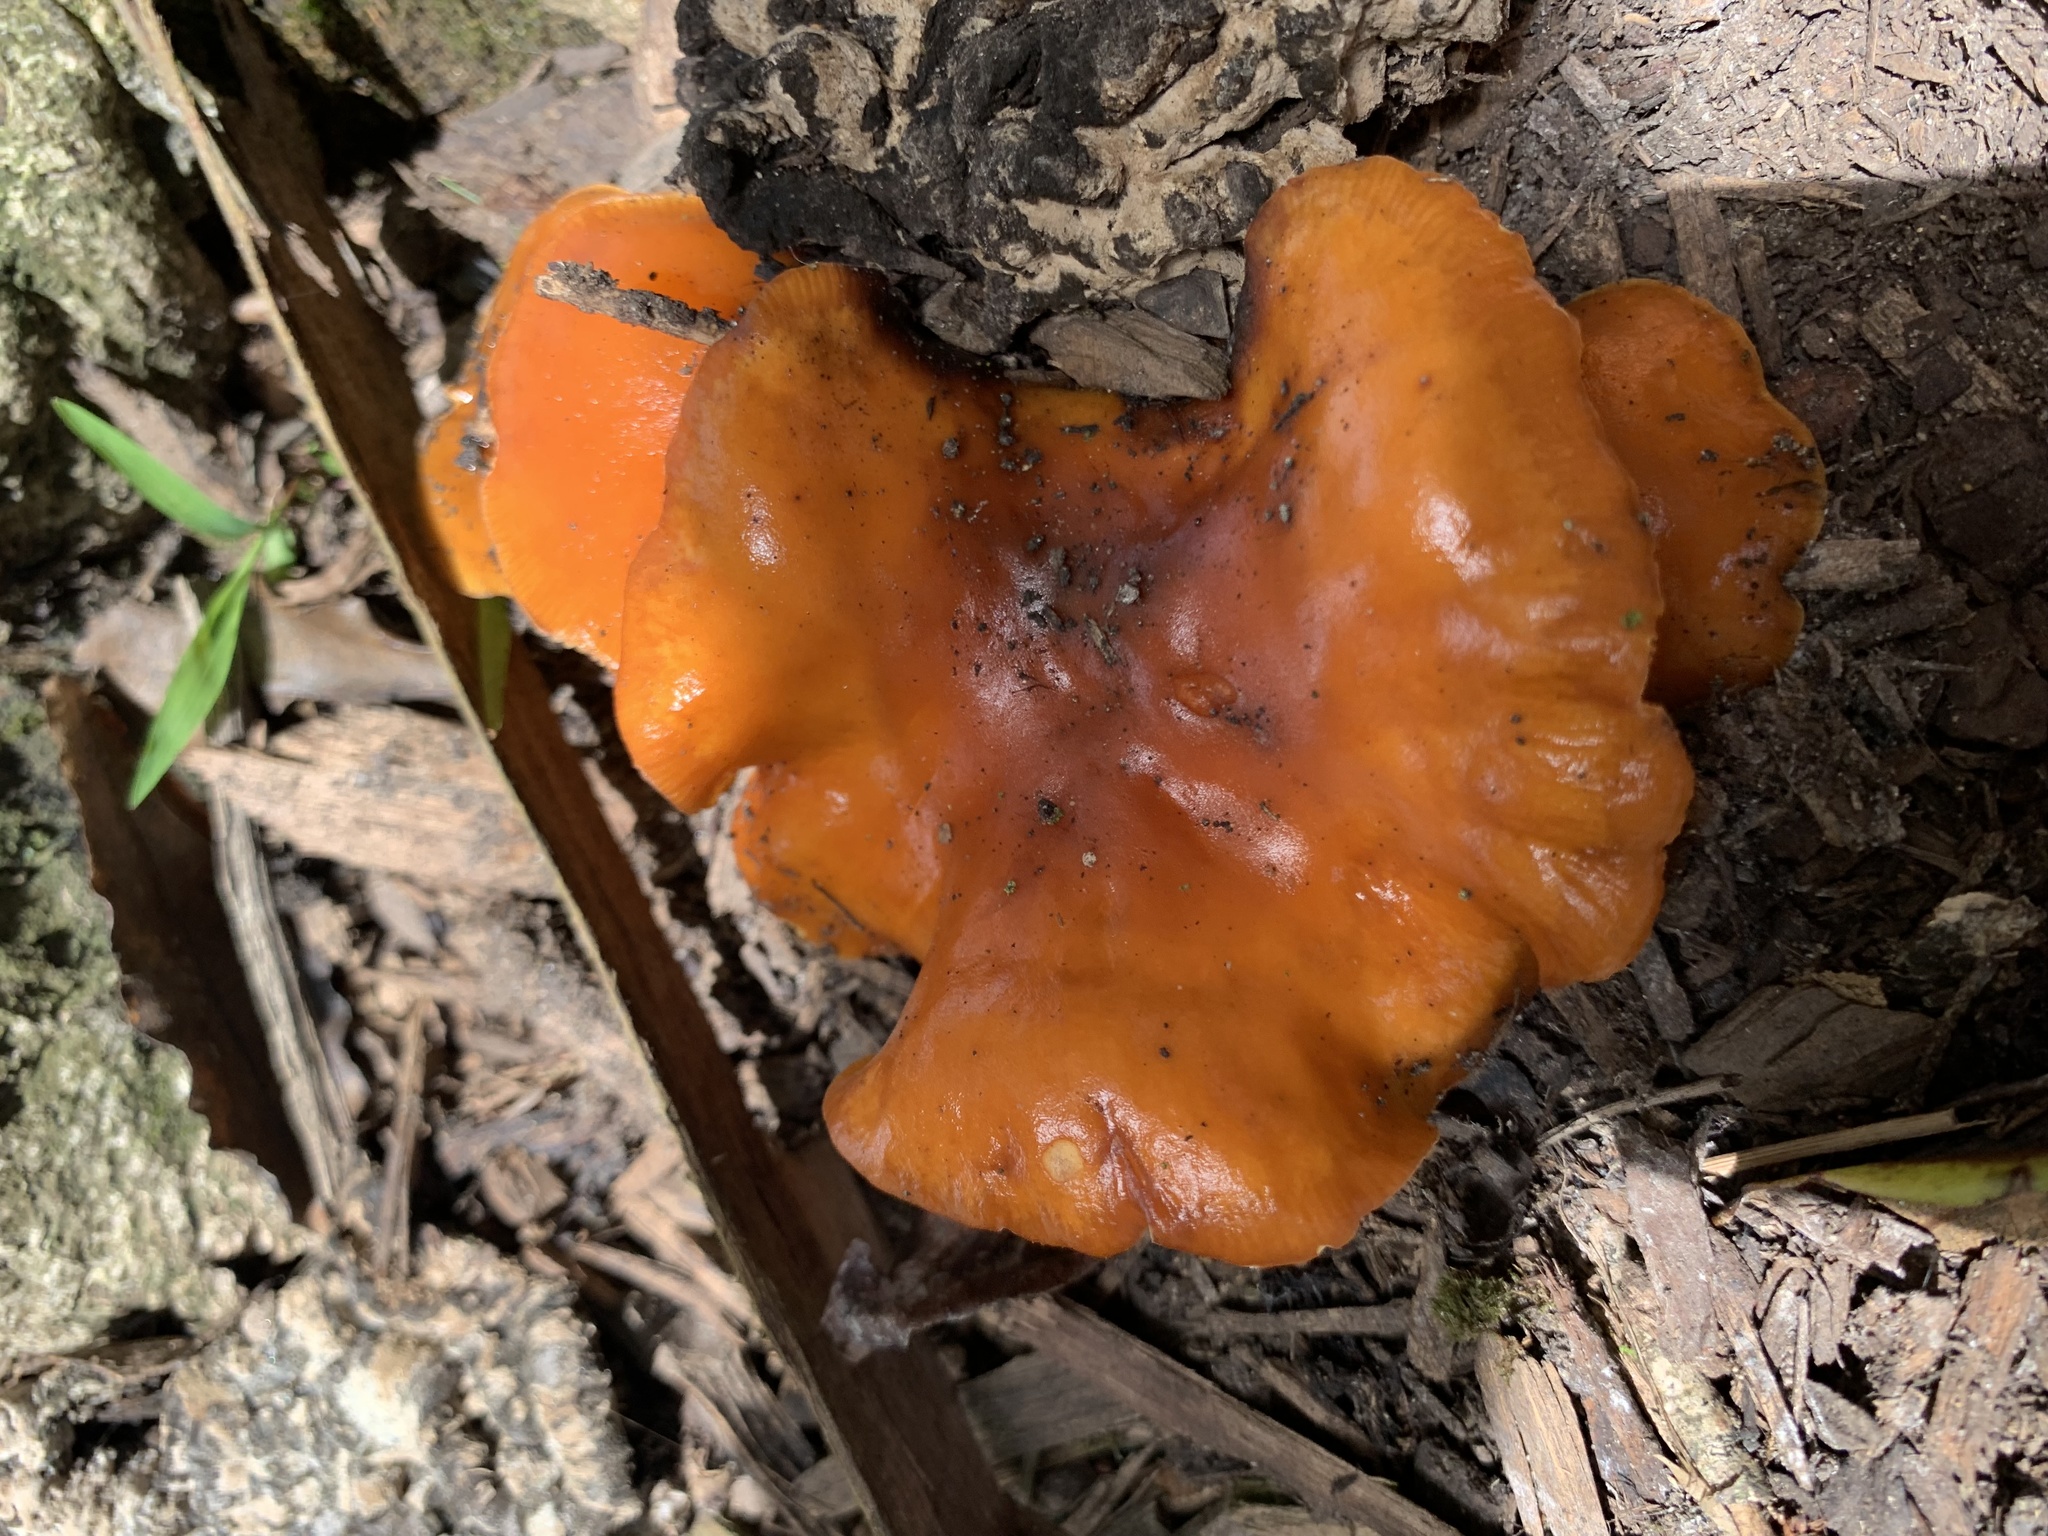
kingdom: Fungi
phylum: Basidiomycota
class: Agaricomycetes
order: Agaricales
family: Physalacriaceae
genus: Flammulina
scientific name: Flammulina velutipes
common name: Velvet shank
